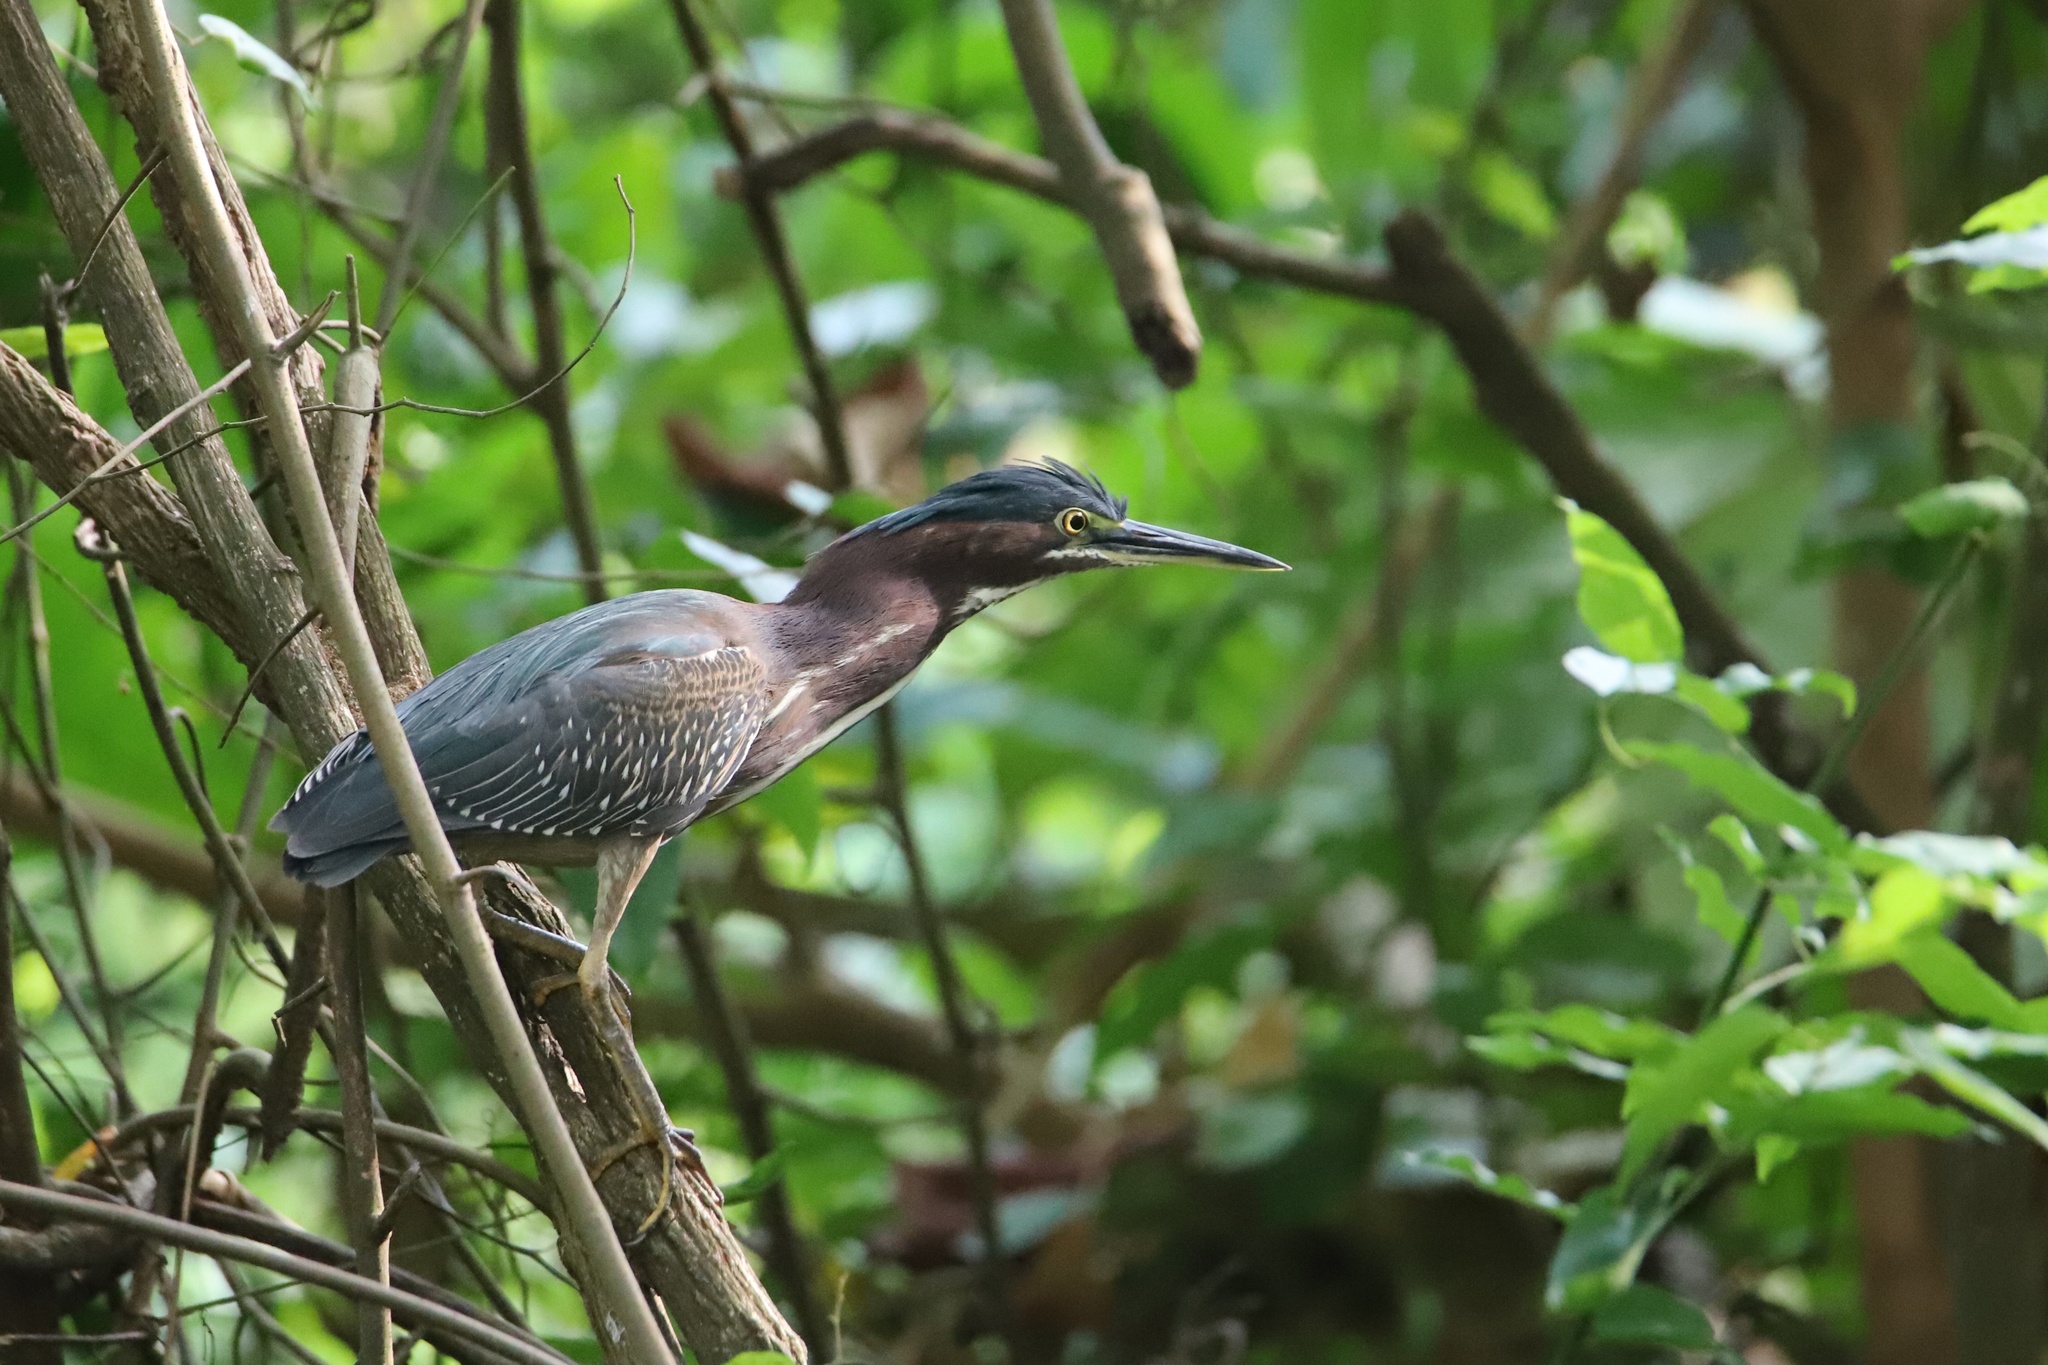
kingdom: Animalia
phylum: Chordata
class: Aves
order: Pelecaniformes
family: Ardeidae
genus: Butorides
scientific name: Butorides virescens
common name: Green heron
